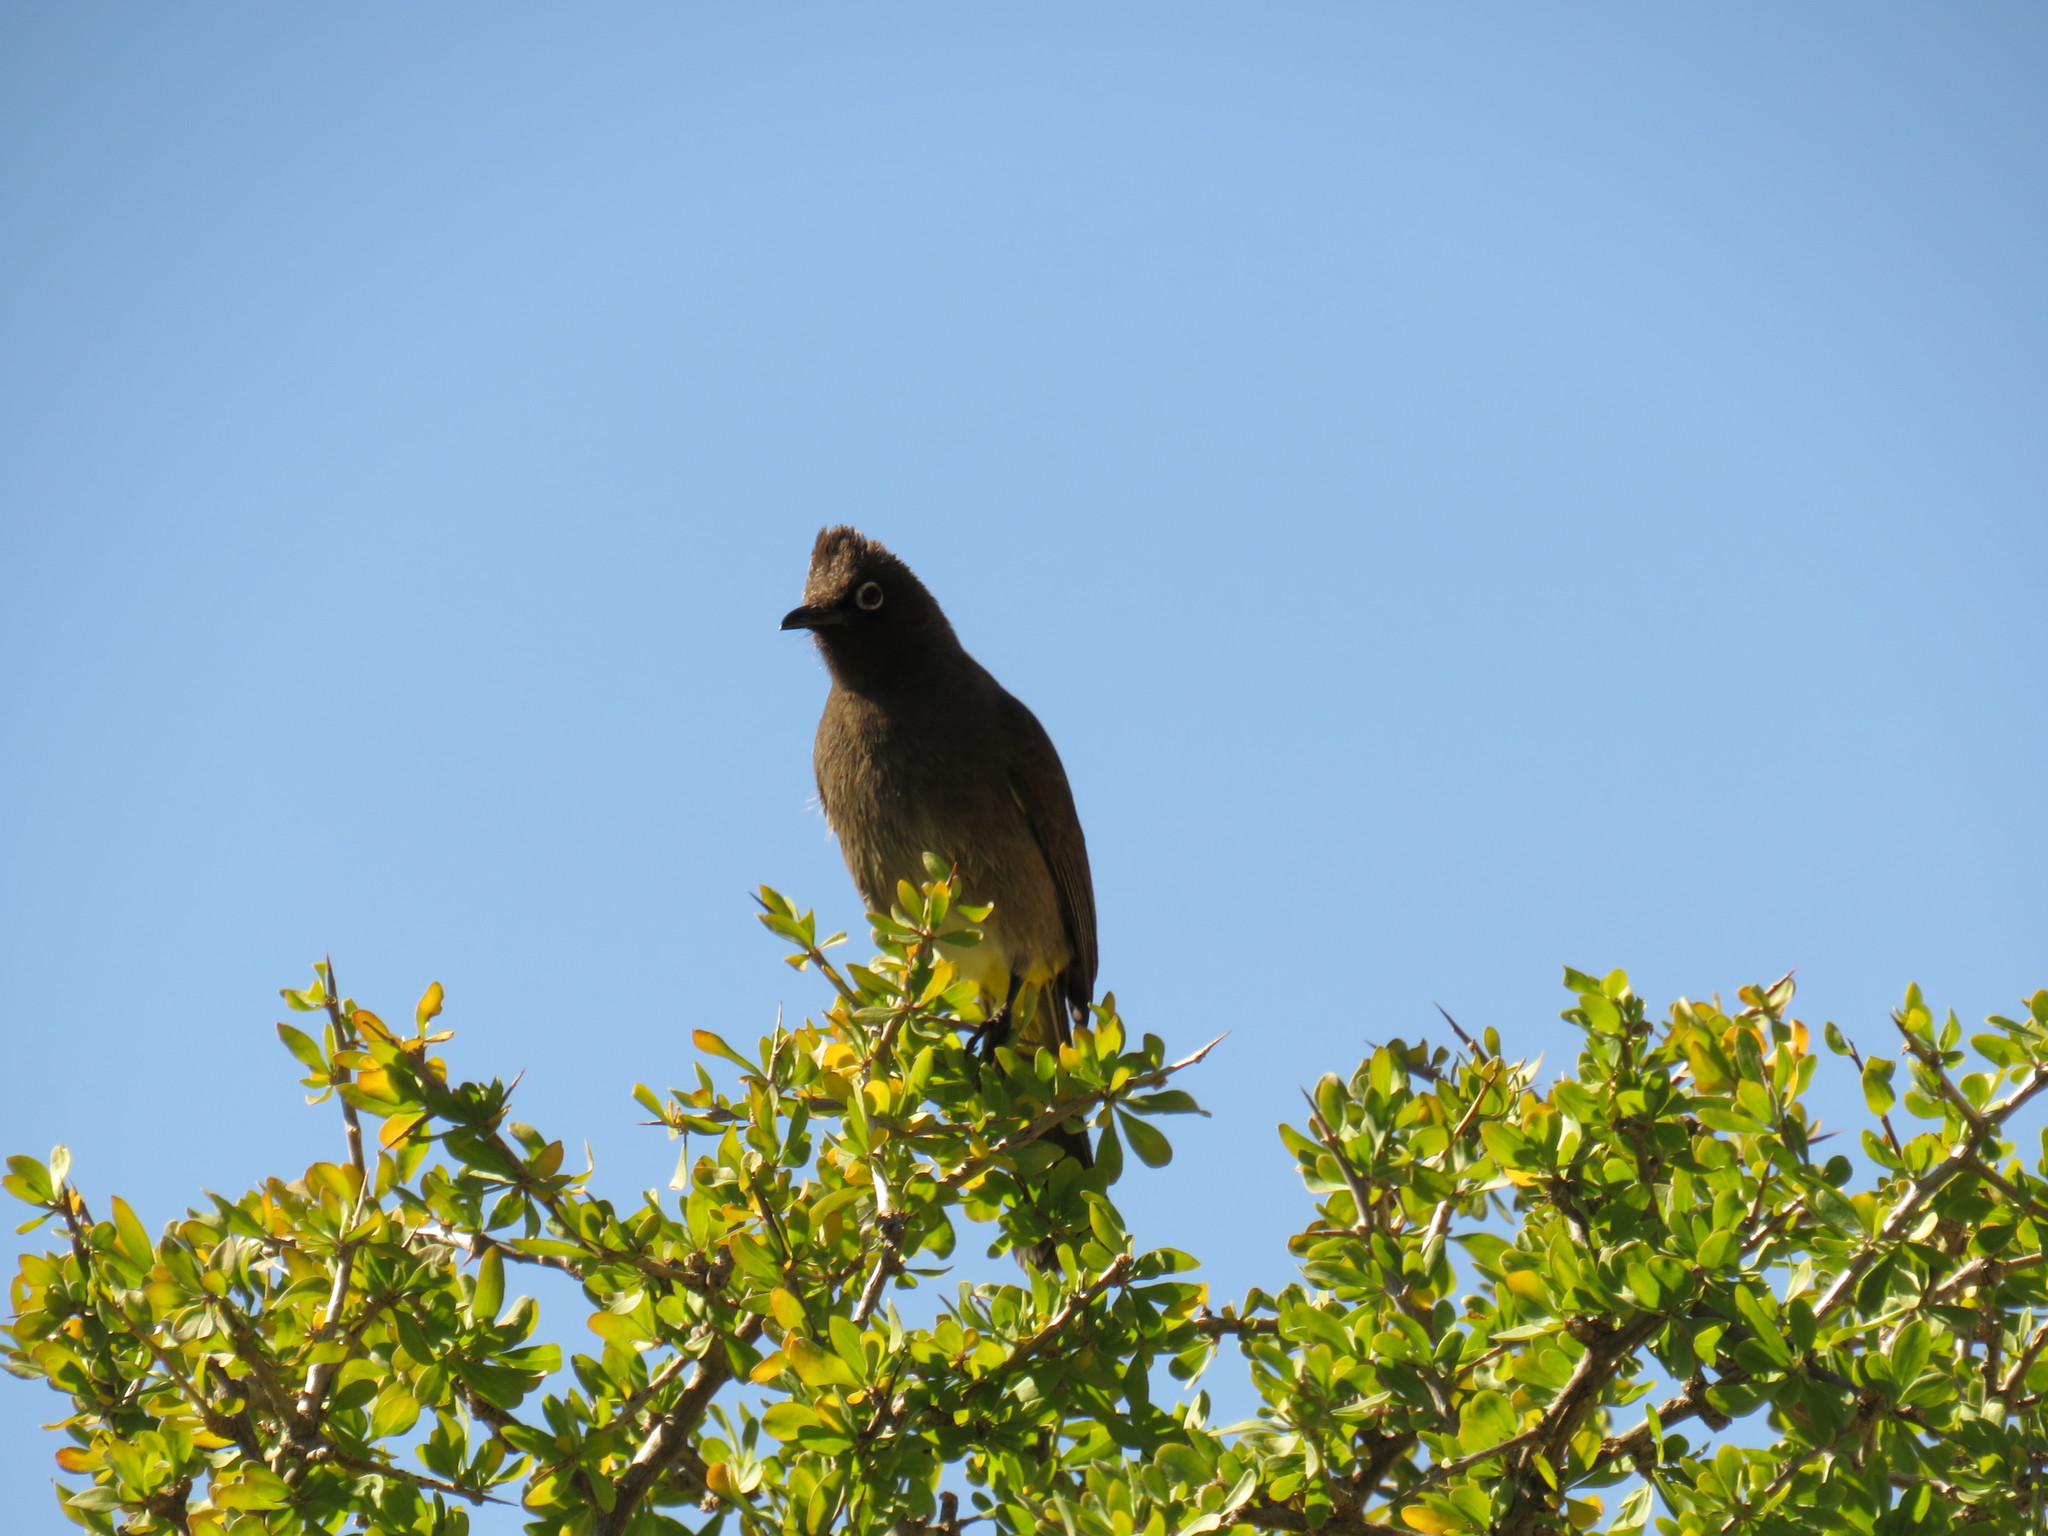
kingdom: Animalia
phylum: Chordata
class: Aves
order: Passeriformes
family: Pycnonotidae
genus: Pycnonotus
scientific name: Pycnonotus capensis
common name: Cape bulbul
